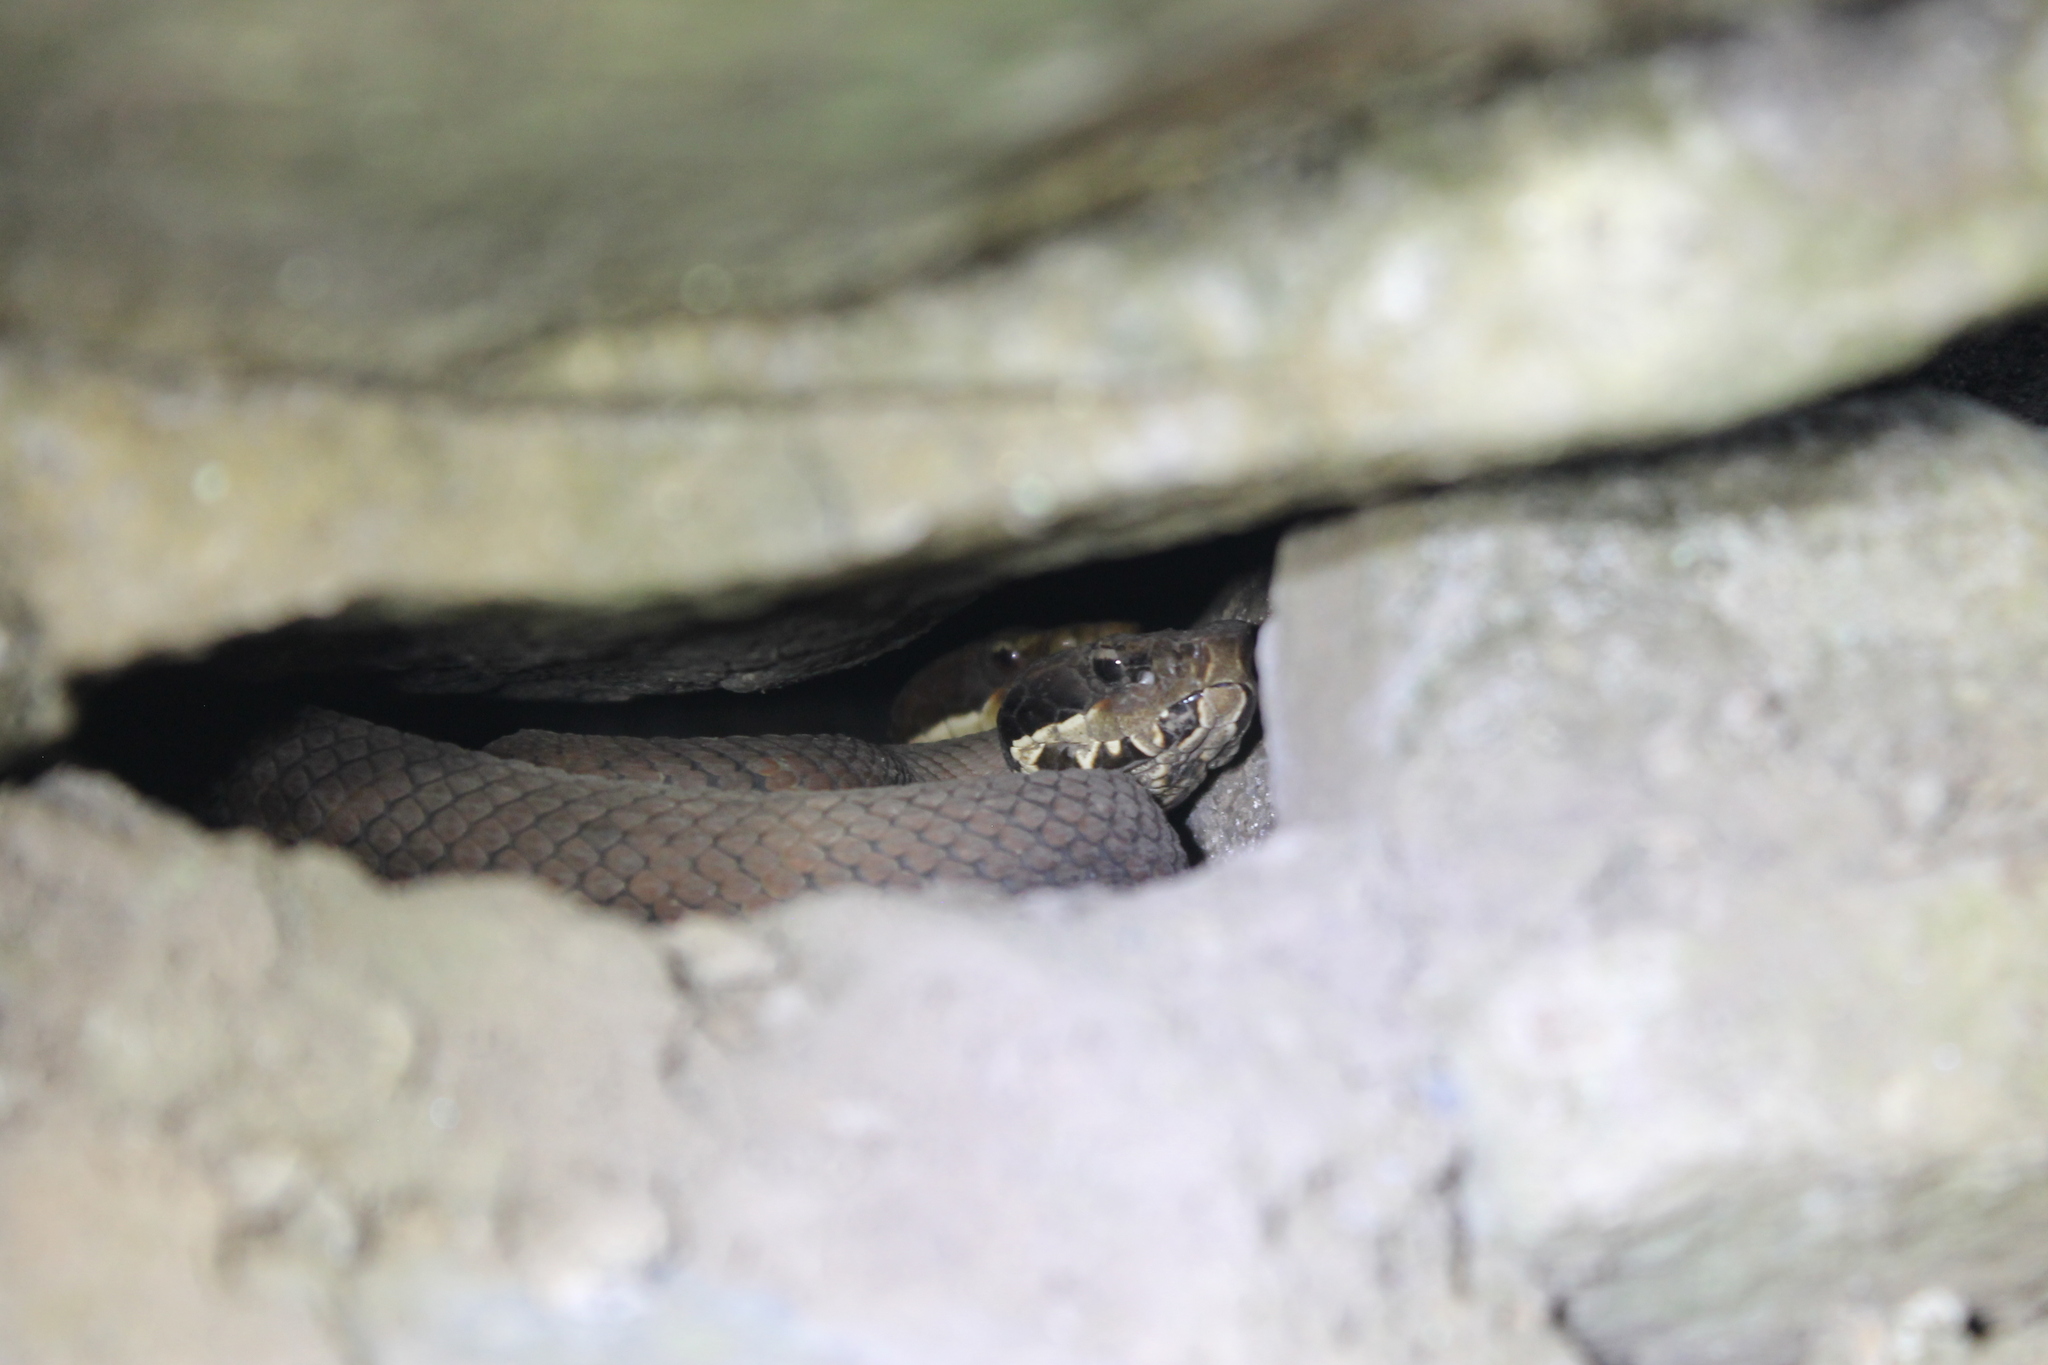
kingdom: Animalia
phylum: Chordata
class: Squamata
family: Viperidae
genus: Agkistrodon
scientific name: Agkistrodon piscivorus
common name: Cottonmouth
